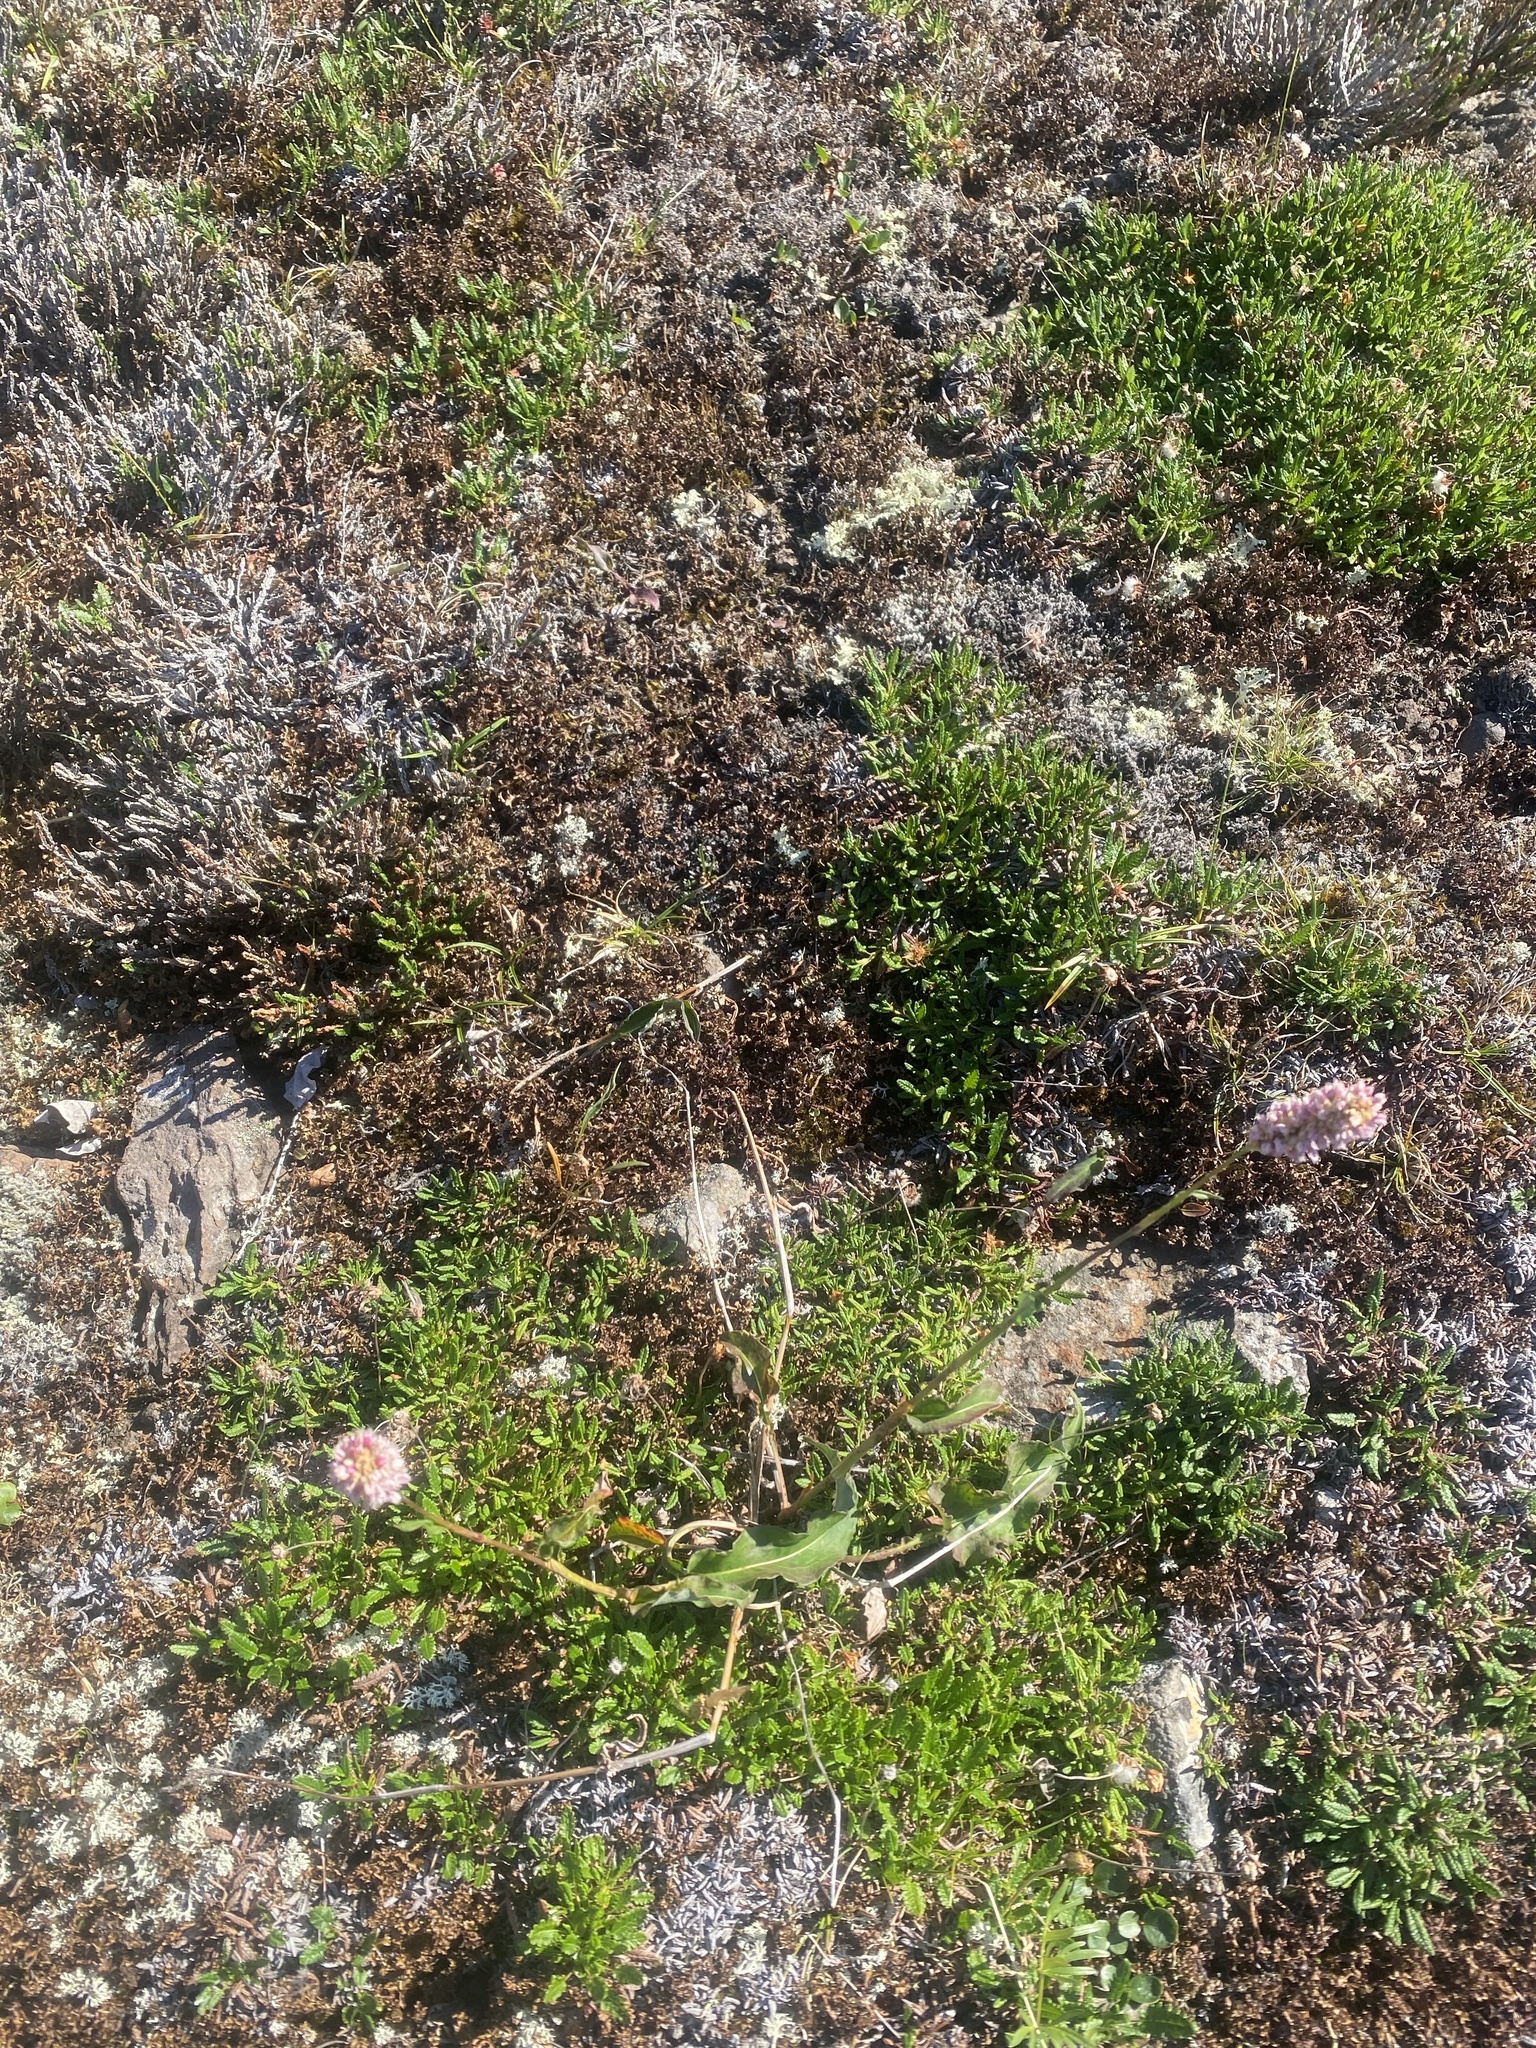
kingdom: Plantae
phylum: Tracheophyta
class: Magnoliopsida
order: Caryophyllales
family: Polygonaceae
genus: Bistorta
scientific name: Bistorta officinalis
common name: Common bistort
